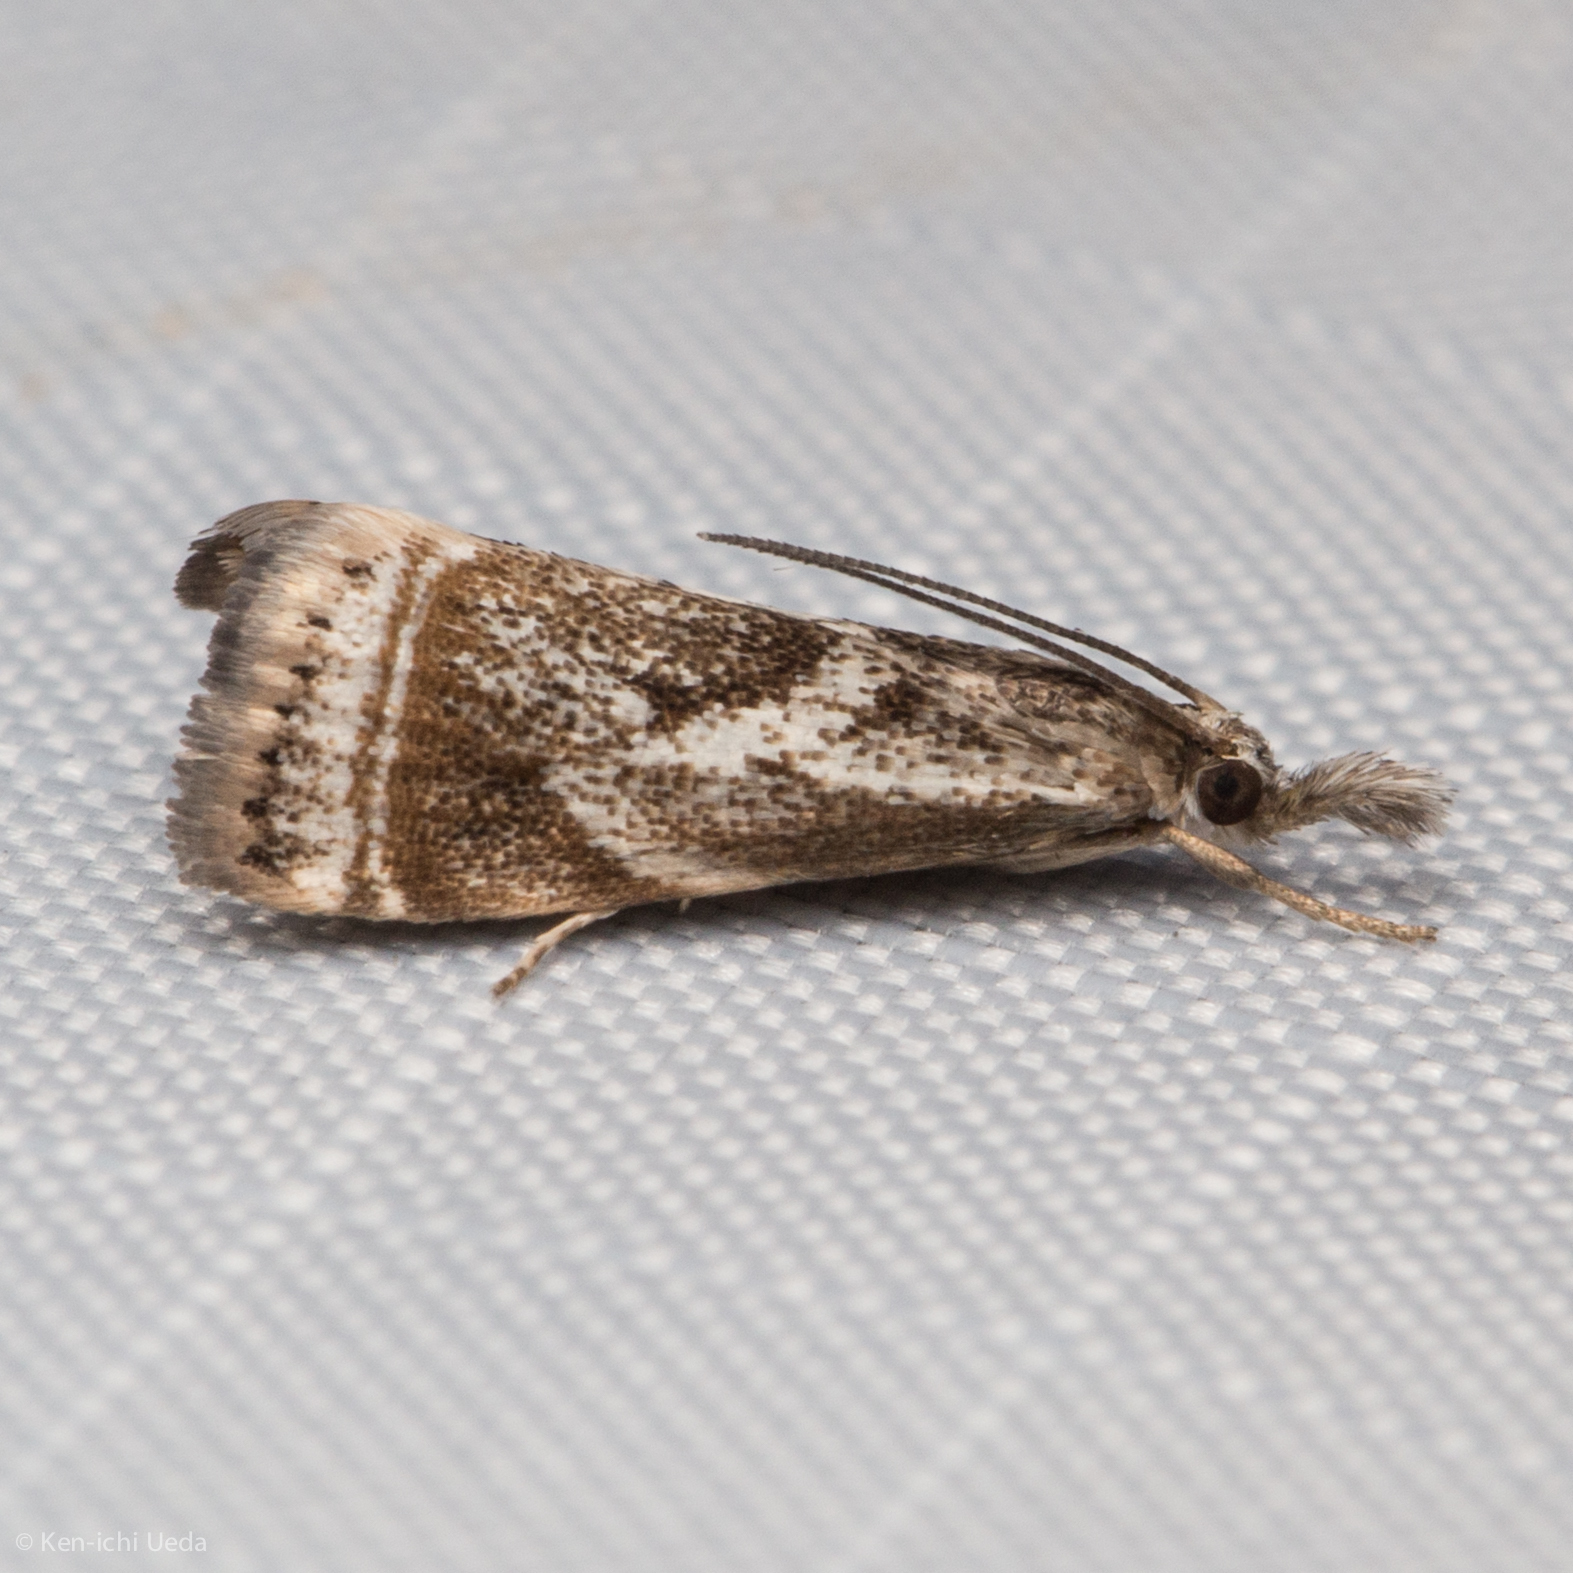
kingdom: Animalia
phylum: Arthropoda
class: Insecta
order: Lepidoptera
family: Crambidae
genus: Microcrambus
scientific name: Microcrambus elegans
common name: Elegant grass-veneer
